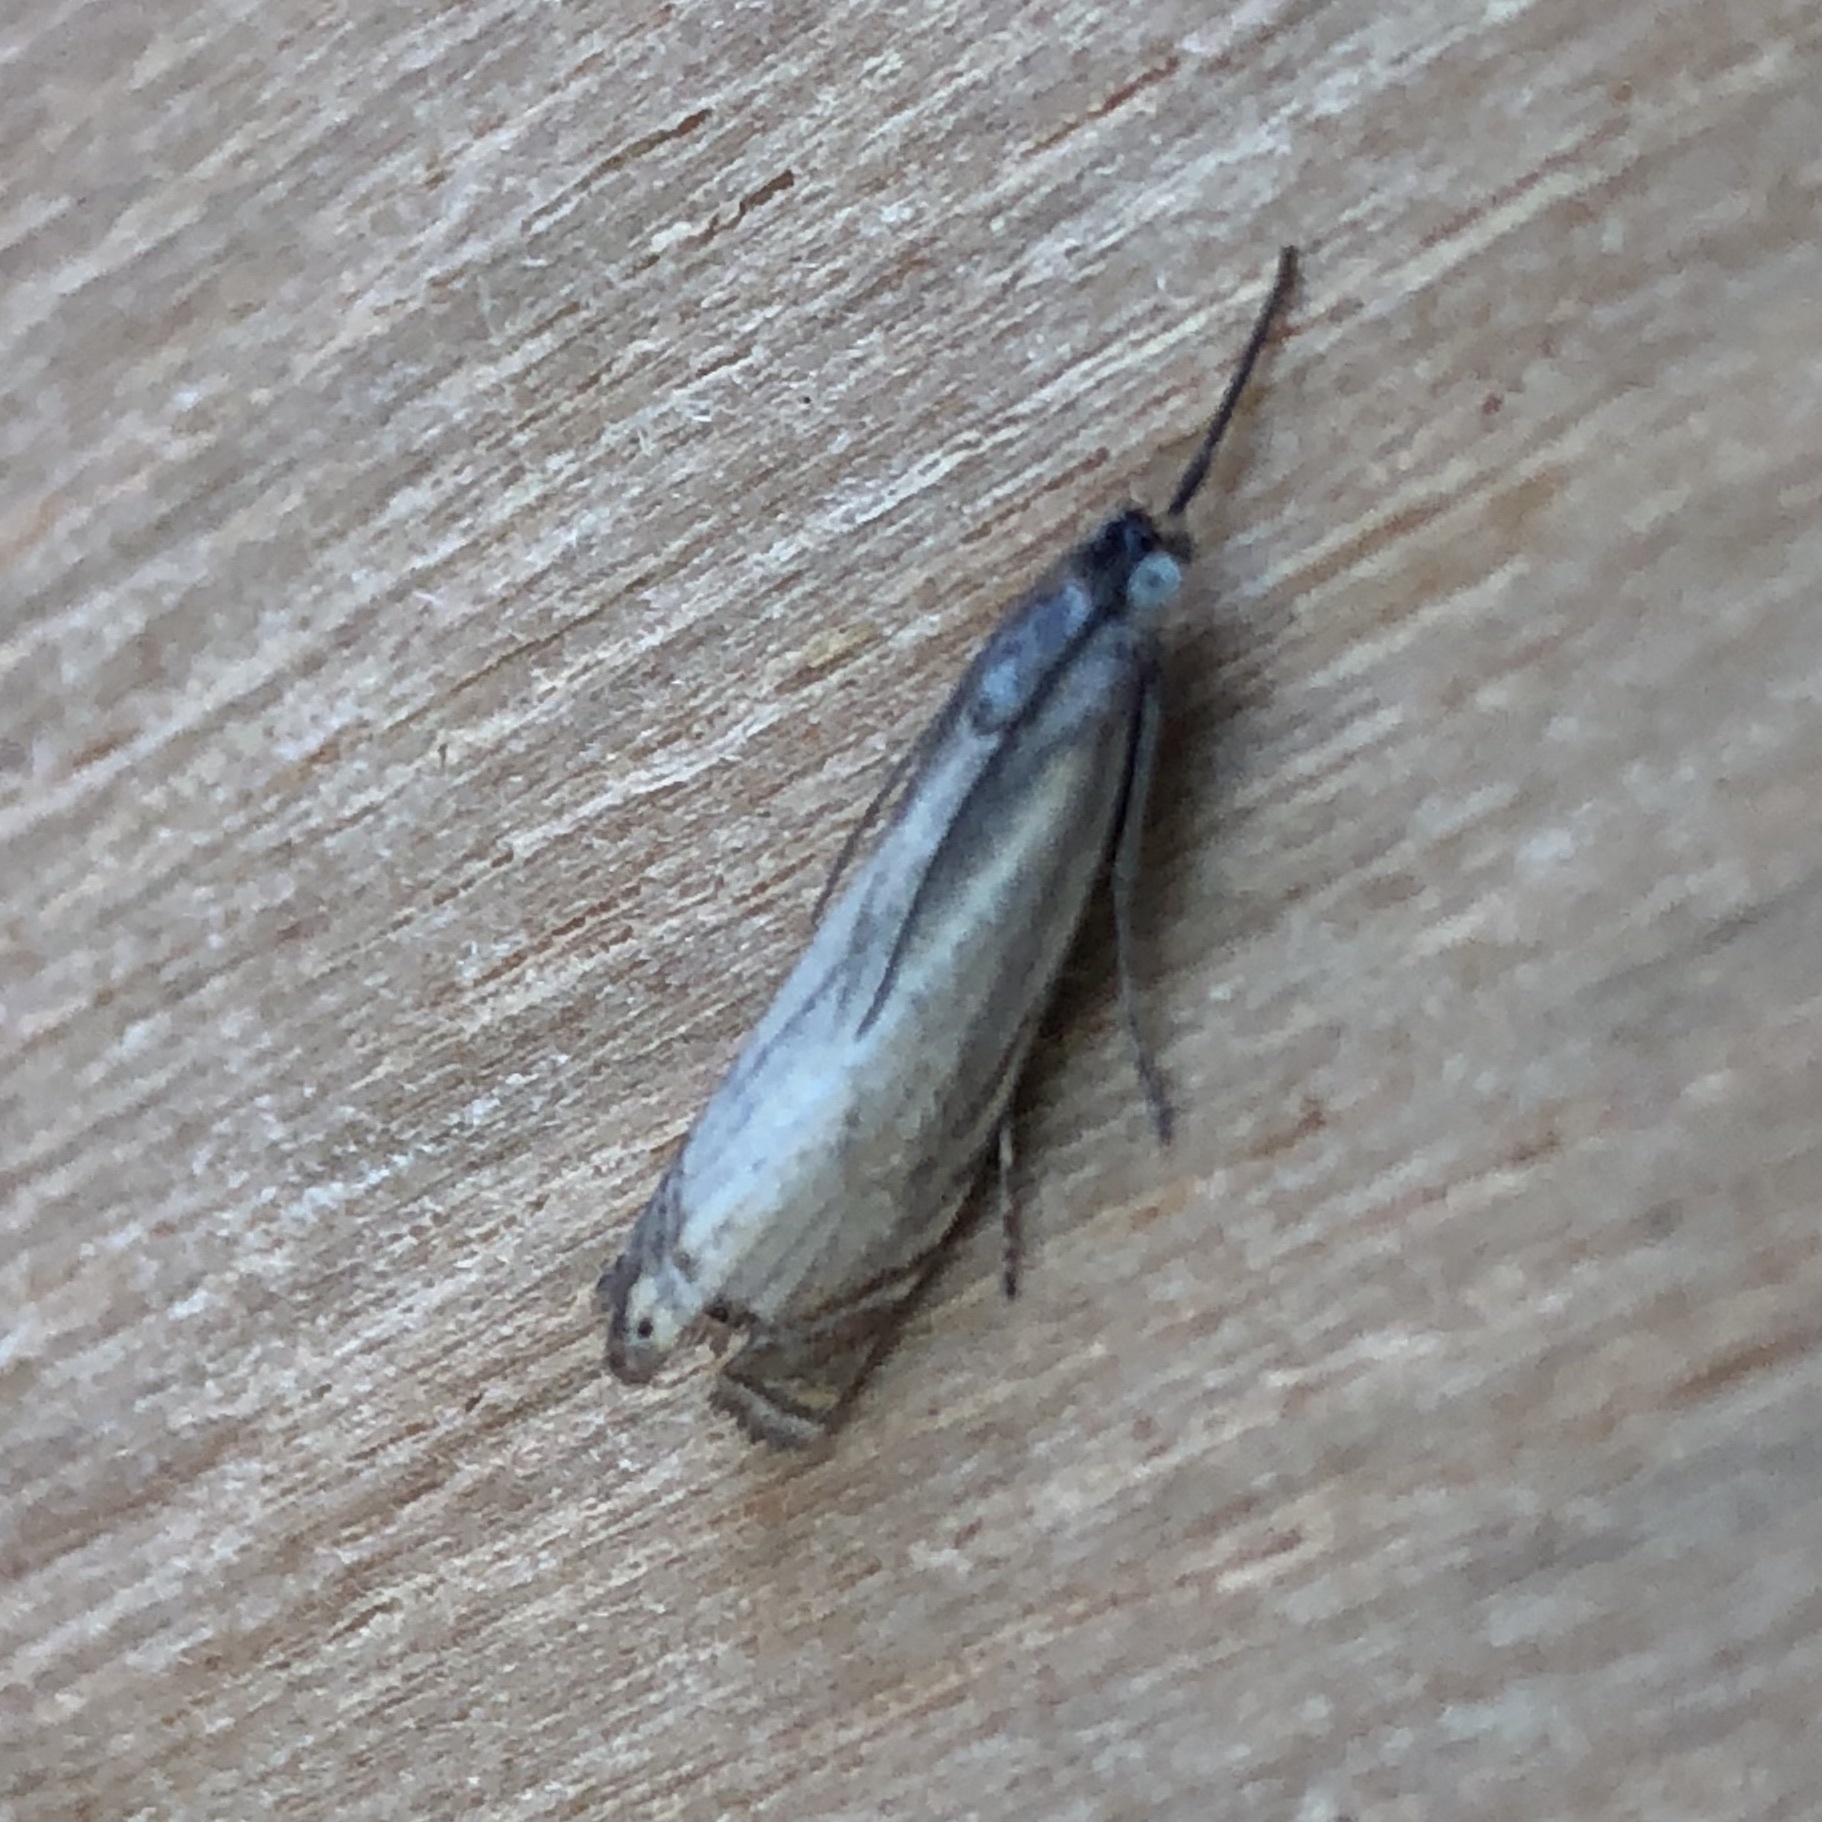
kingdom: Animalia
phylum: Arthropoda
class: Insecta
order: Lepidoptera
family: Crambidae
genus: Chrysoteuchia
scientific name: Chrysoteuchia culmella
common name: Garden grass-veneer
